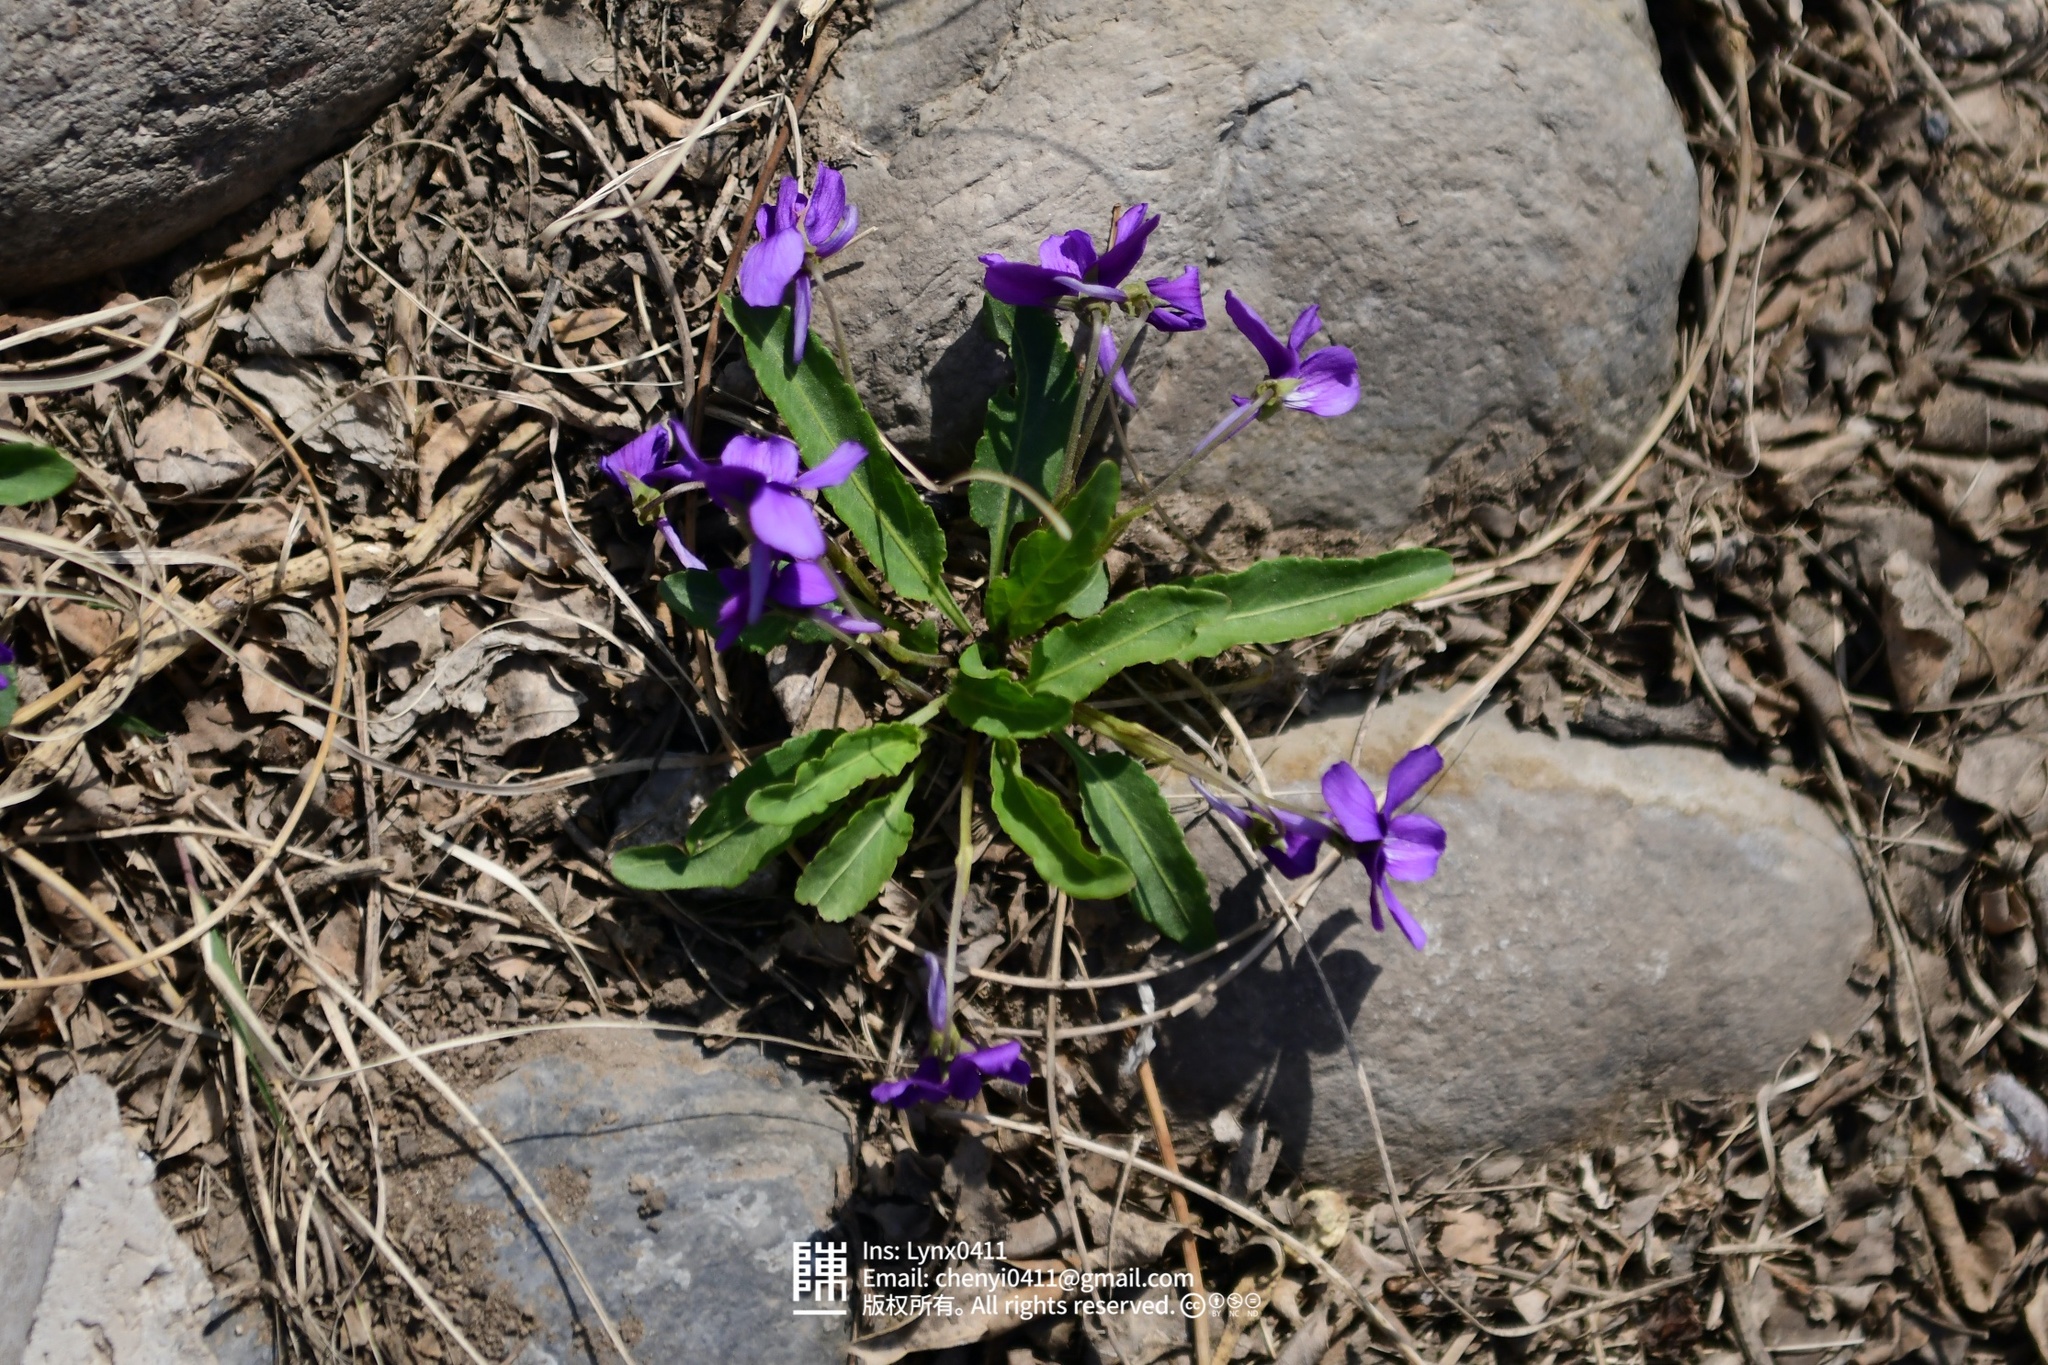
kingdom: Plantae
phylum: Tracheophyta
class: Magnoliopsida
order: Malpighiales
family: Violaceae
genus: Viola
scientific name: Viola philippica
